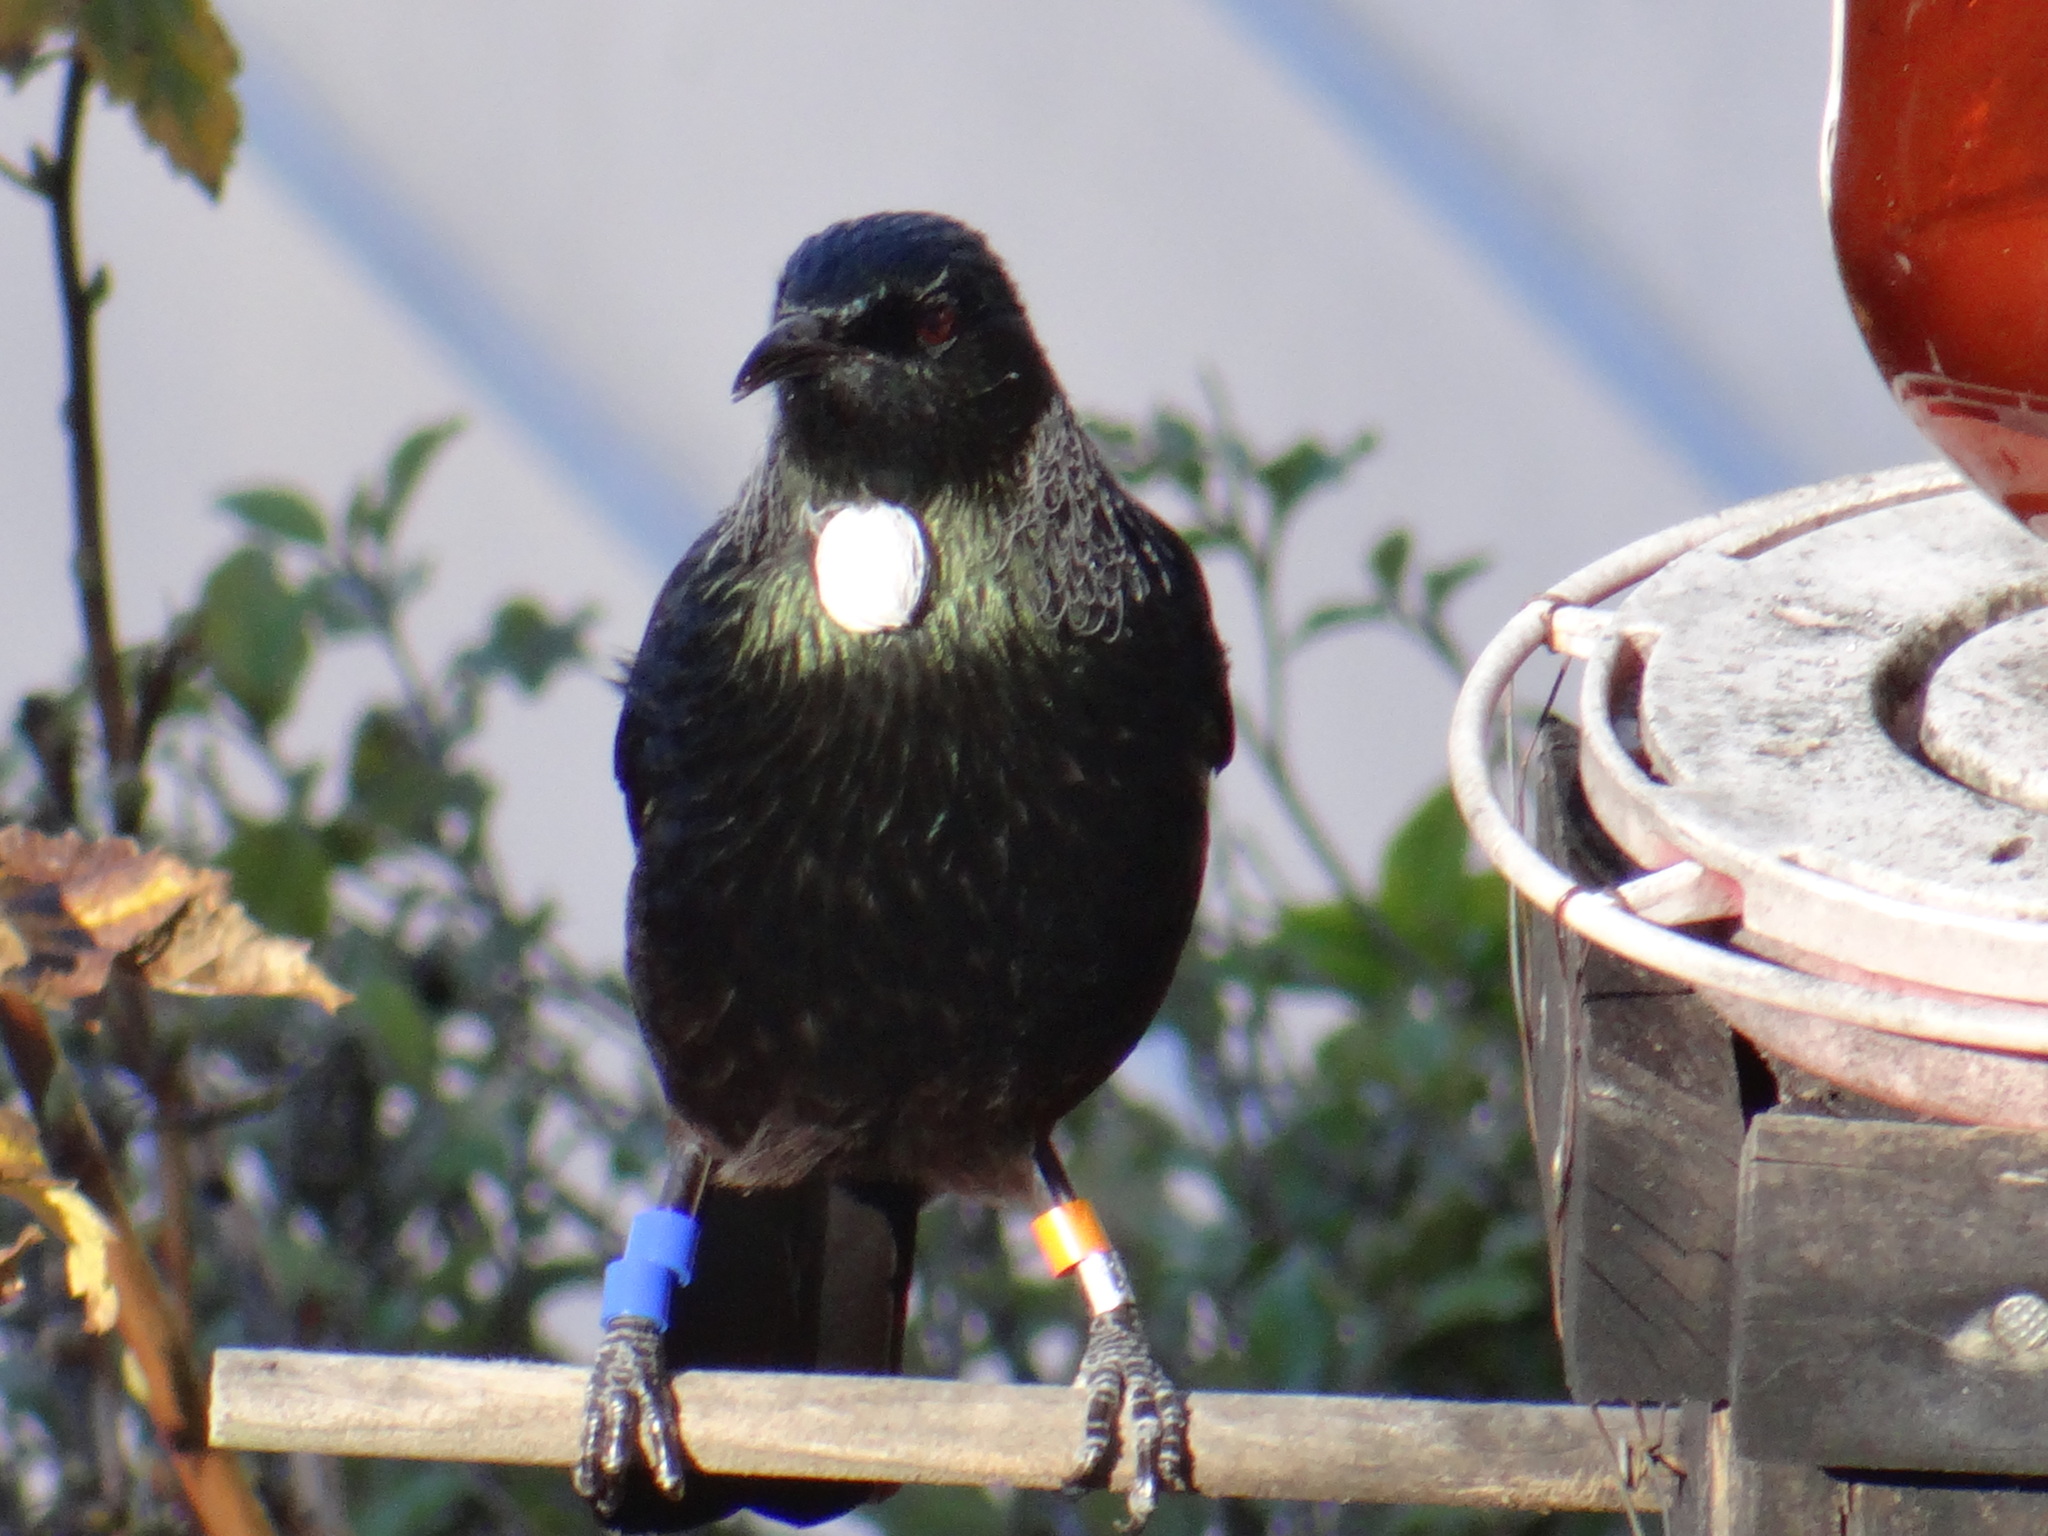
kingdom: Animalia
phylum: Chordata
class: Aves
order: Passeriformes
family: Meliphagidae
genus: Prosthemadera
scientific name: Prosthemadera novaeseelandiae
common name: Tui
